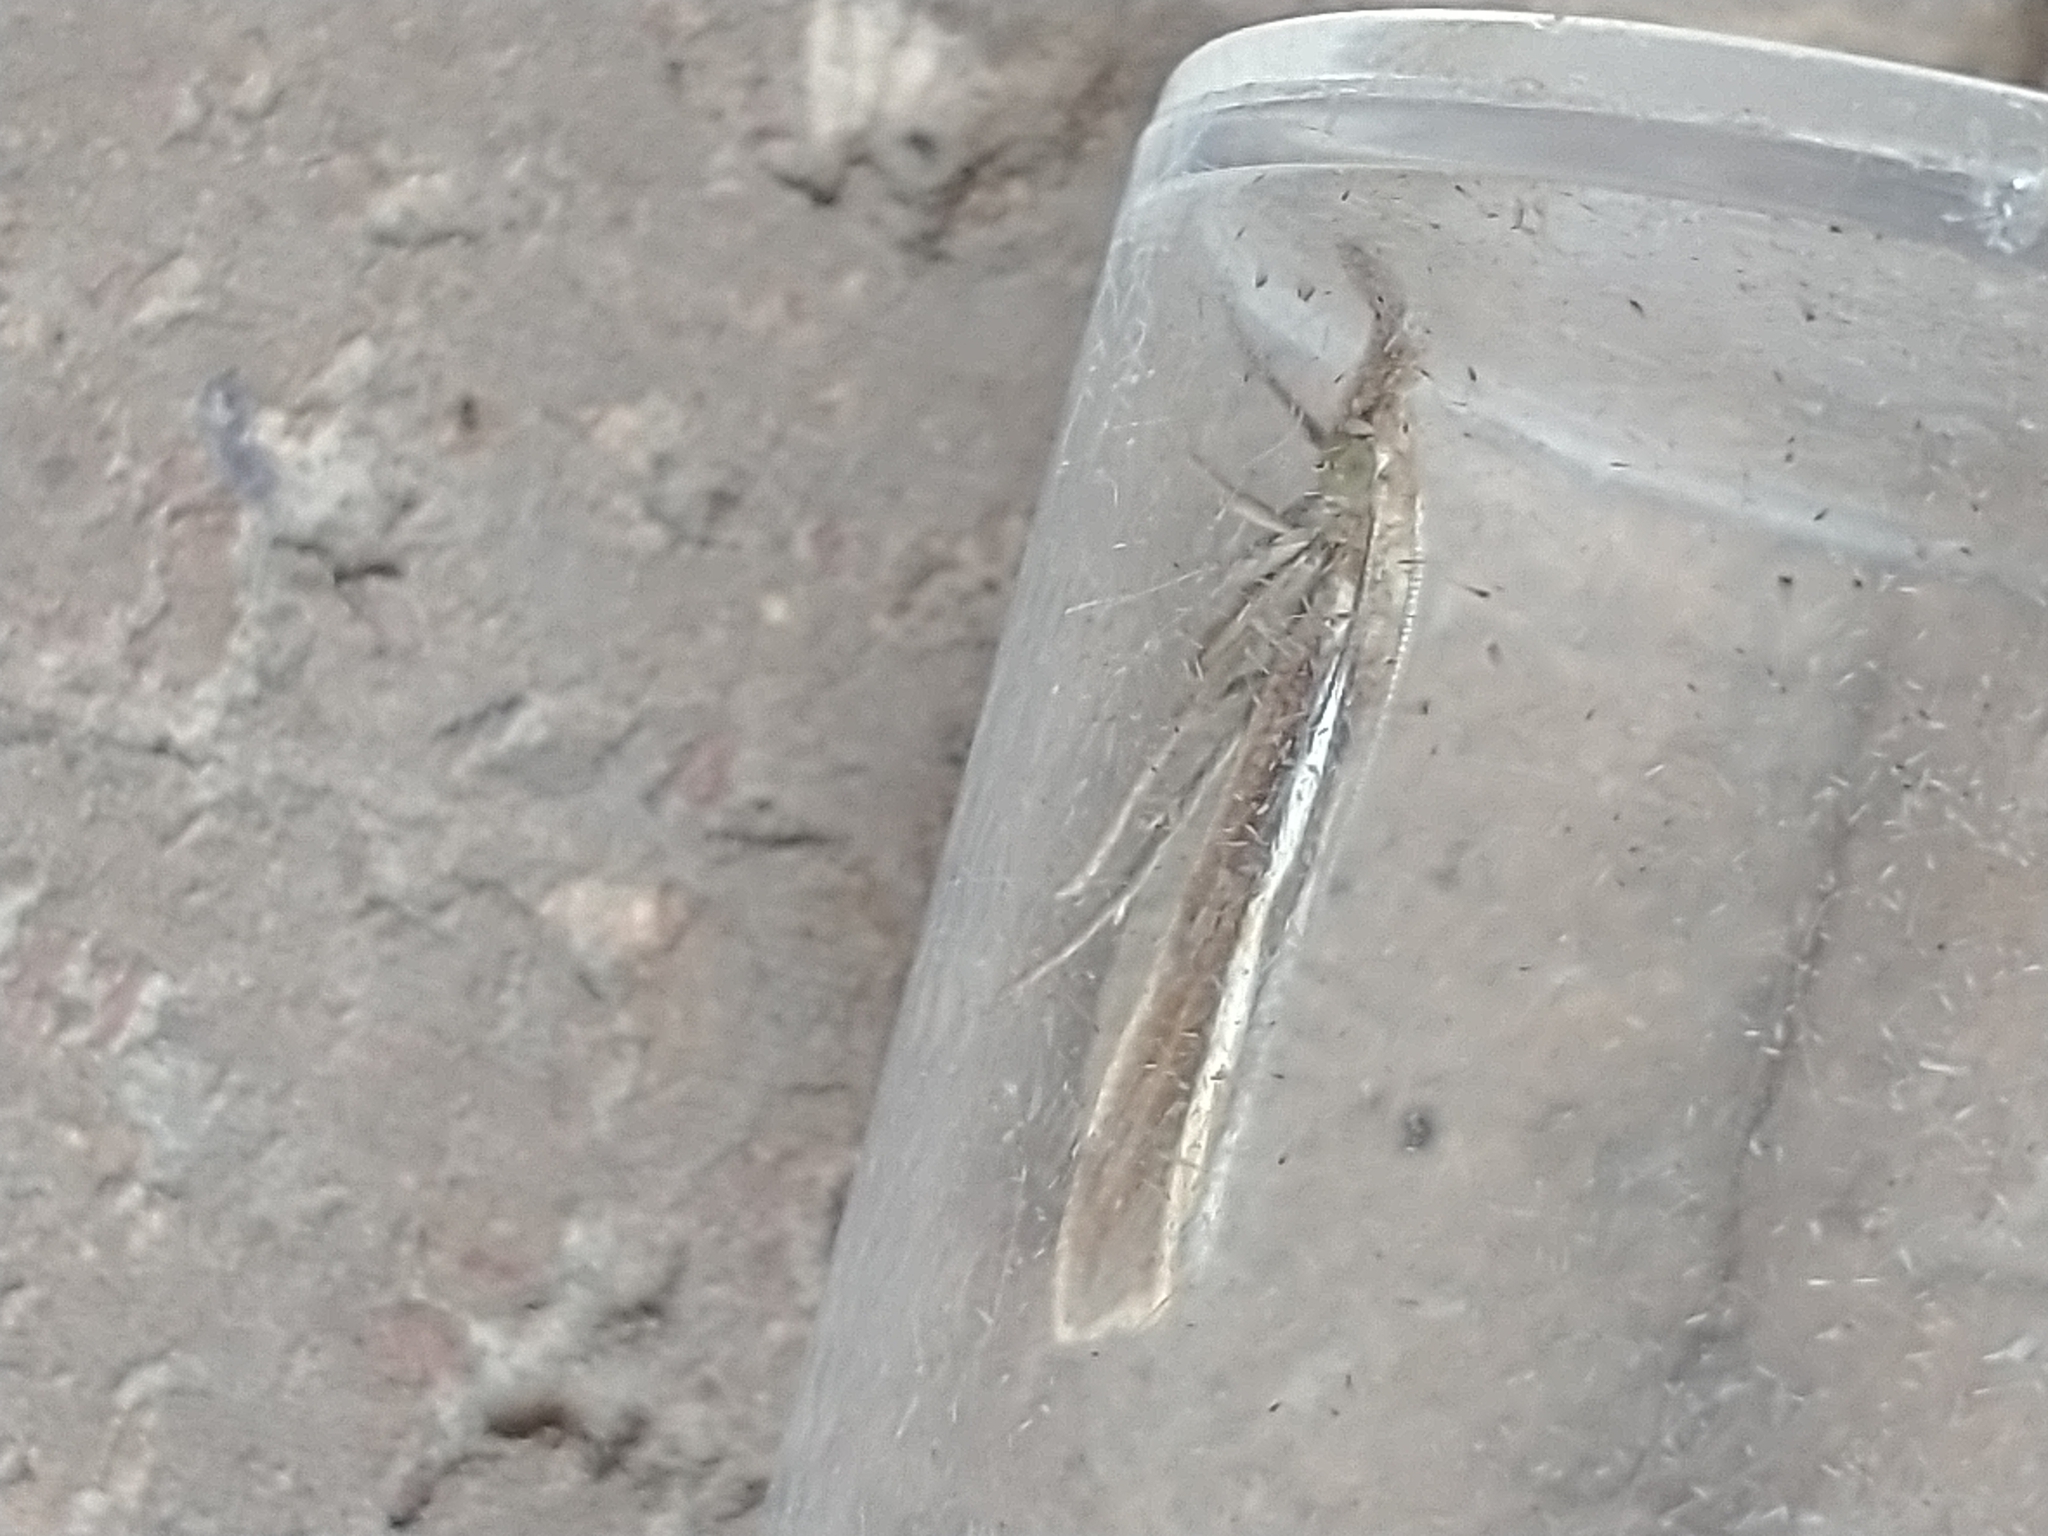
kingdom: Animalia
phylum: Arthropoda
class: Insecta
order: Lepidoptera
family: Crambidae
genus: Agriphila
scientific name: Agriphila tristellus
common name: Common grass-veneer
